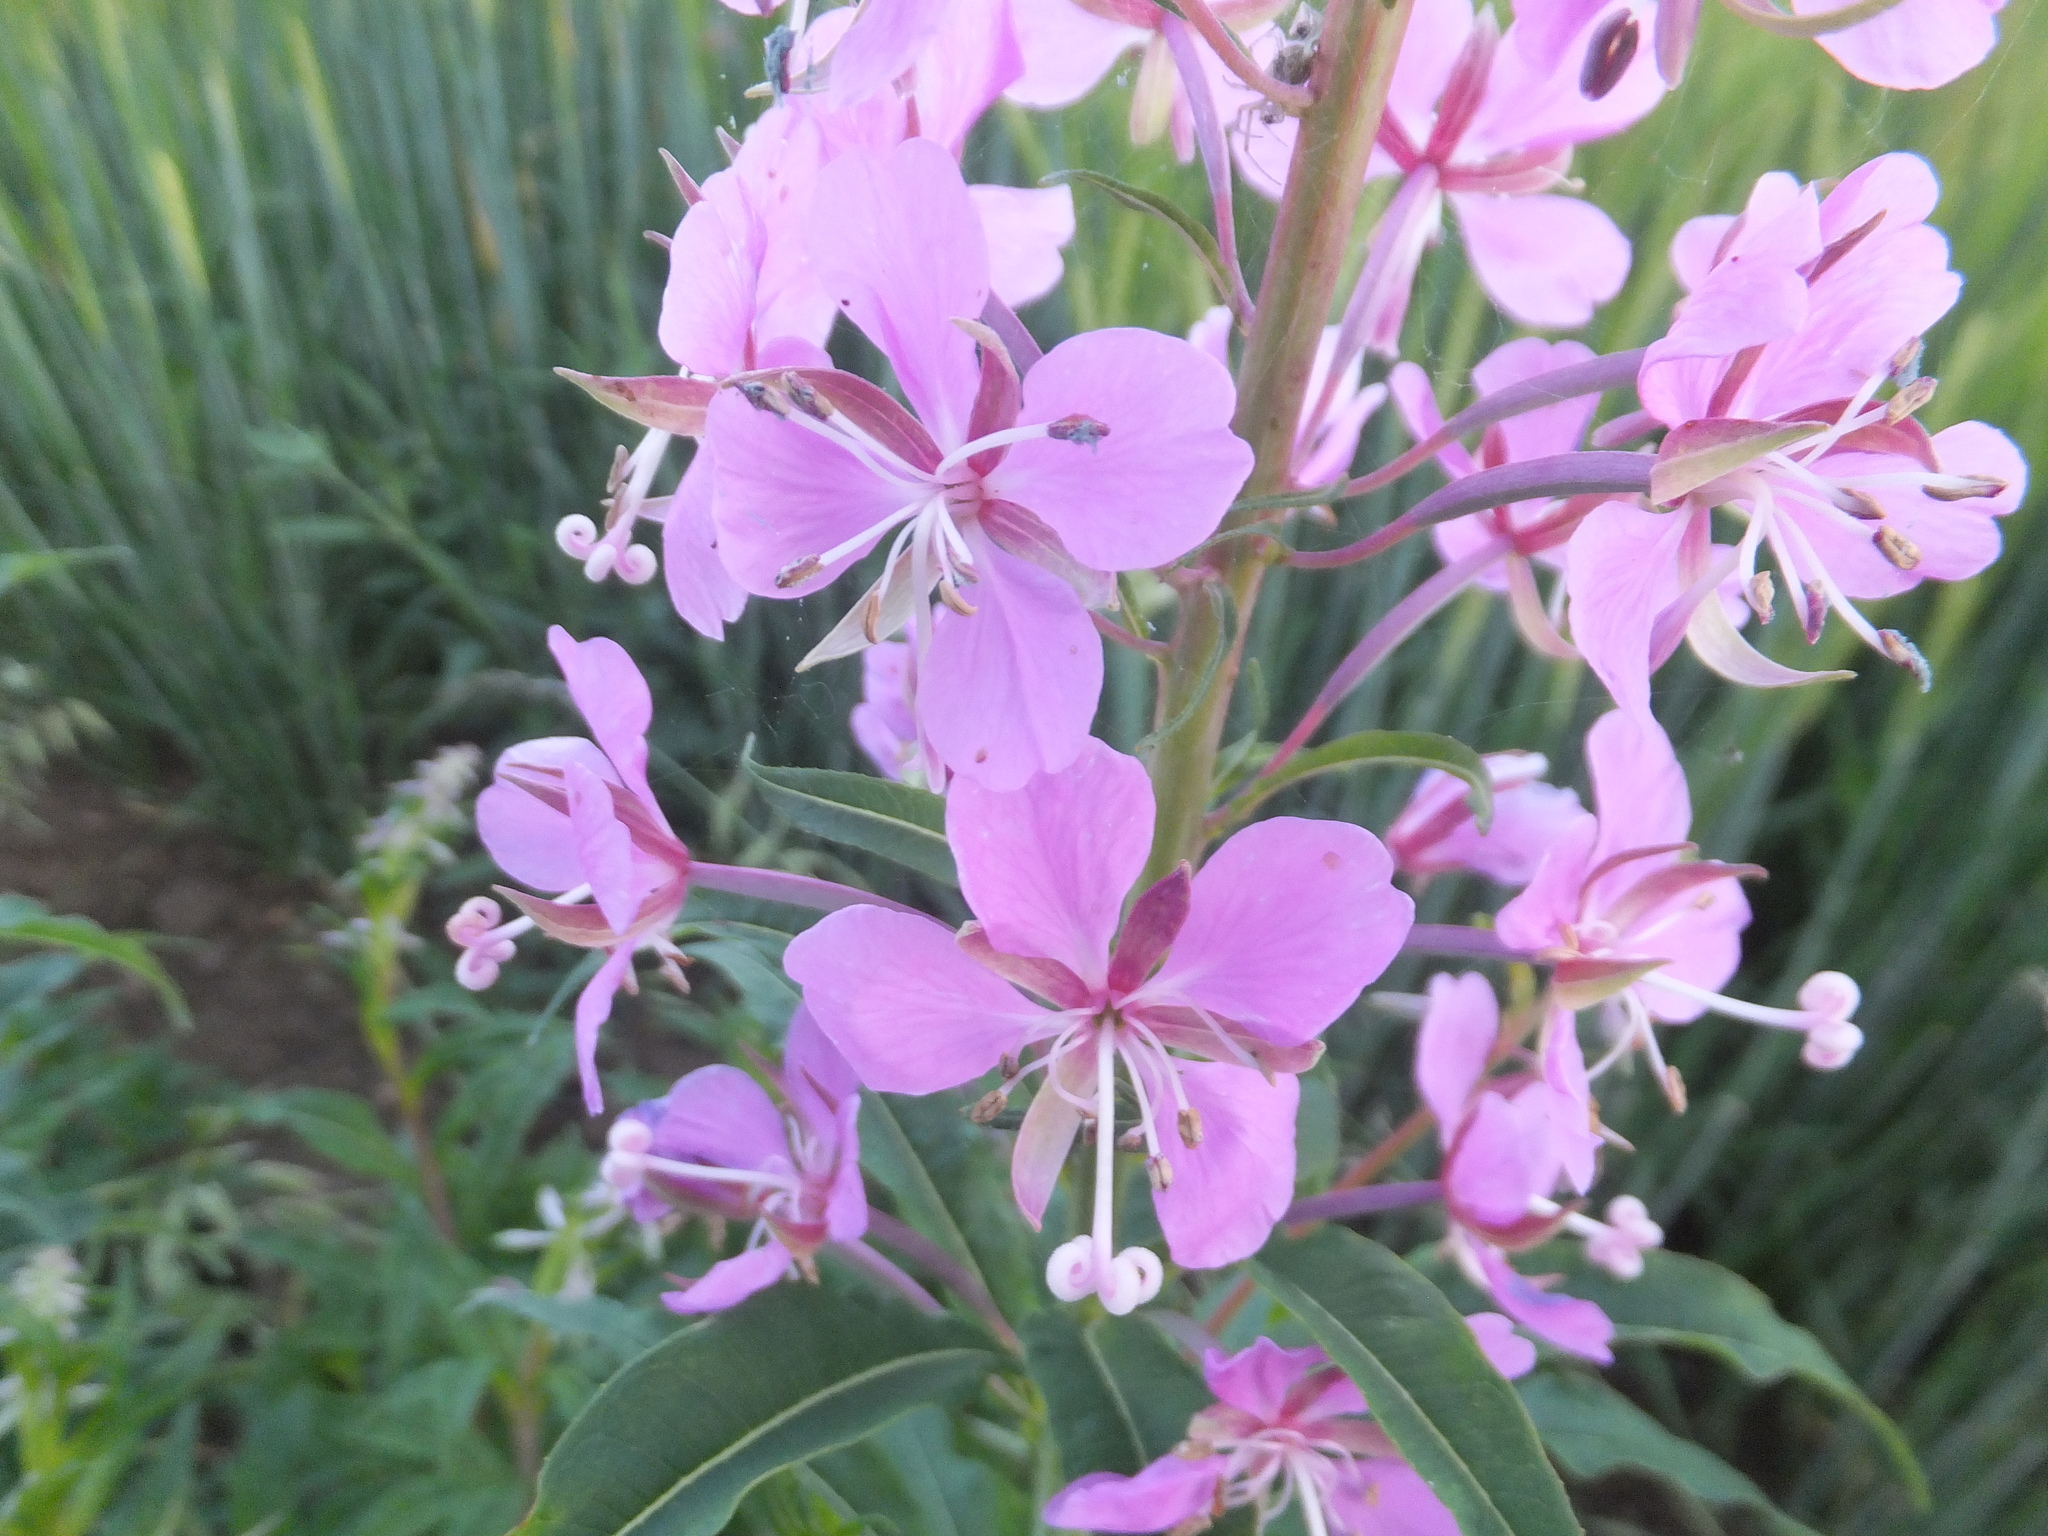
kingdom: Plantae
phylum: Tracheophyta
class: Magnoliopsida
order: Myrtales
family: Onagraceae
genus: Chamaenerion
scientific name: Chamaenerion angustifolium
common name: Fireweed
